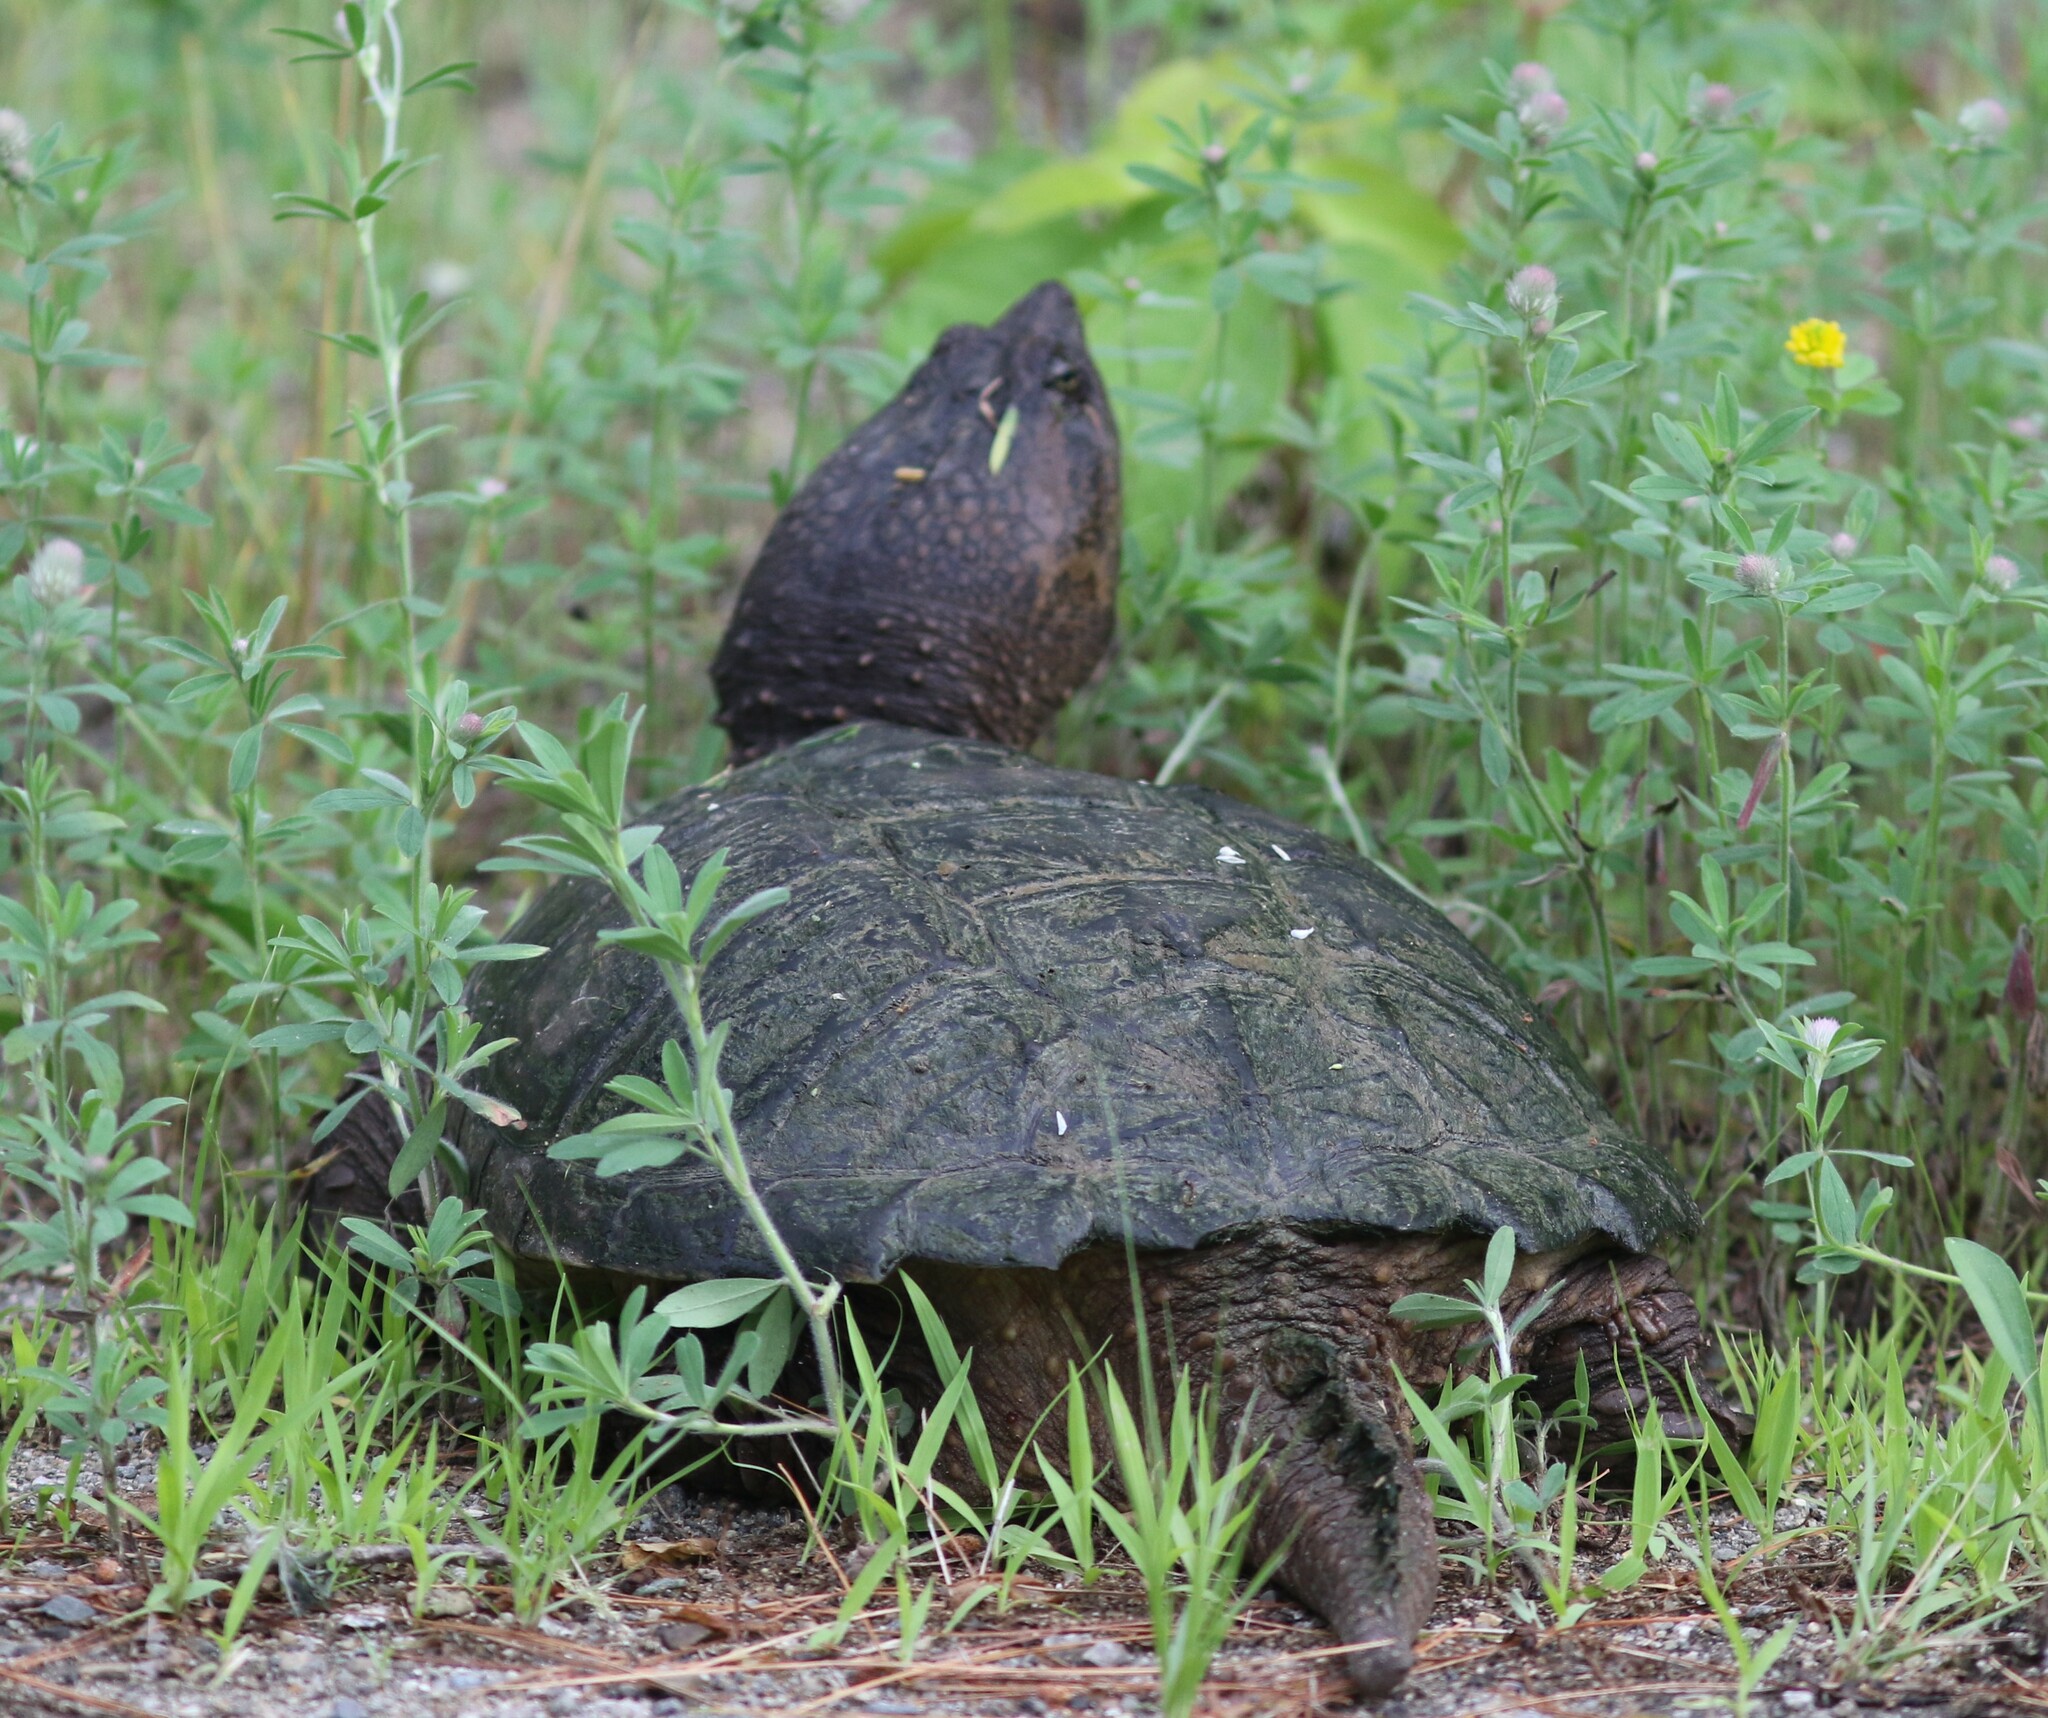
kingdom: Animalia
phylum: Chordata
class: Testudines
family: Chelydridae
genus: Chelydra
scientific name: Chelydra serpentina
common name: Common snapping turtle
